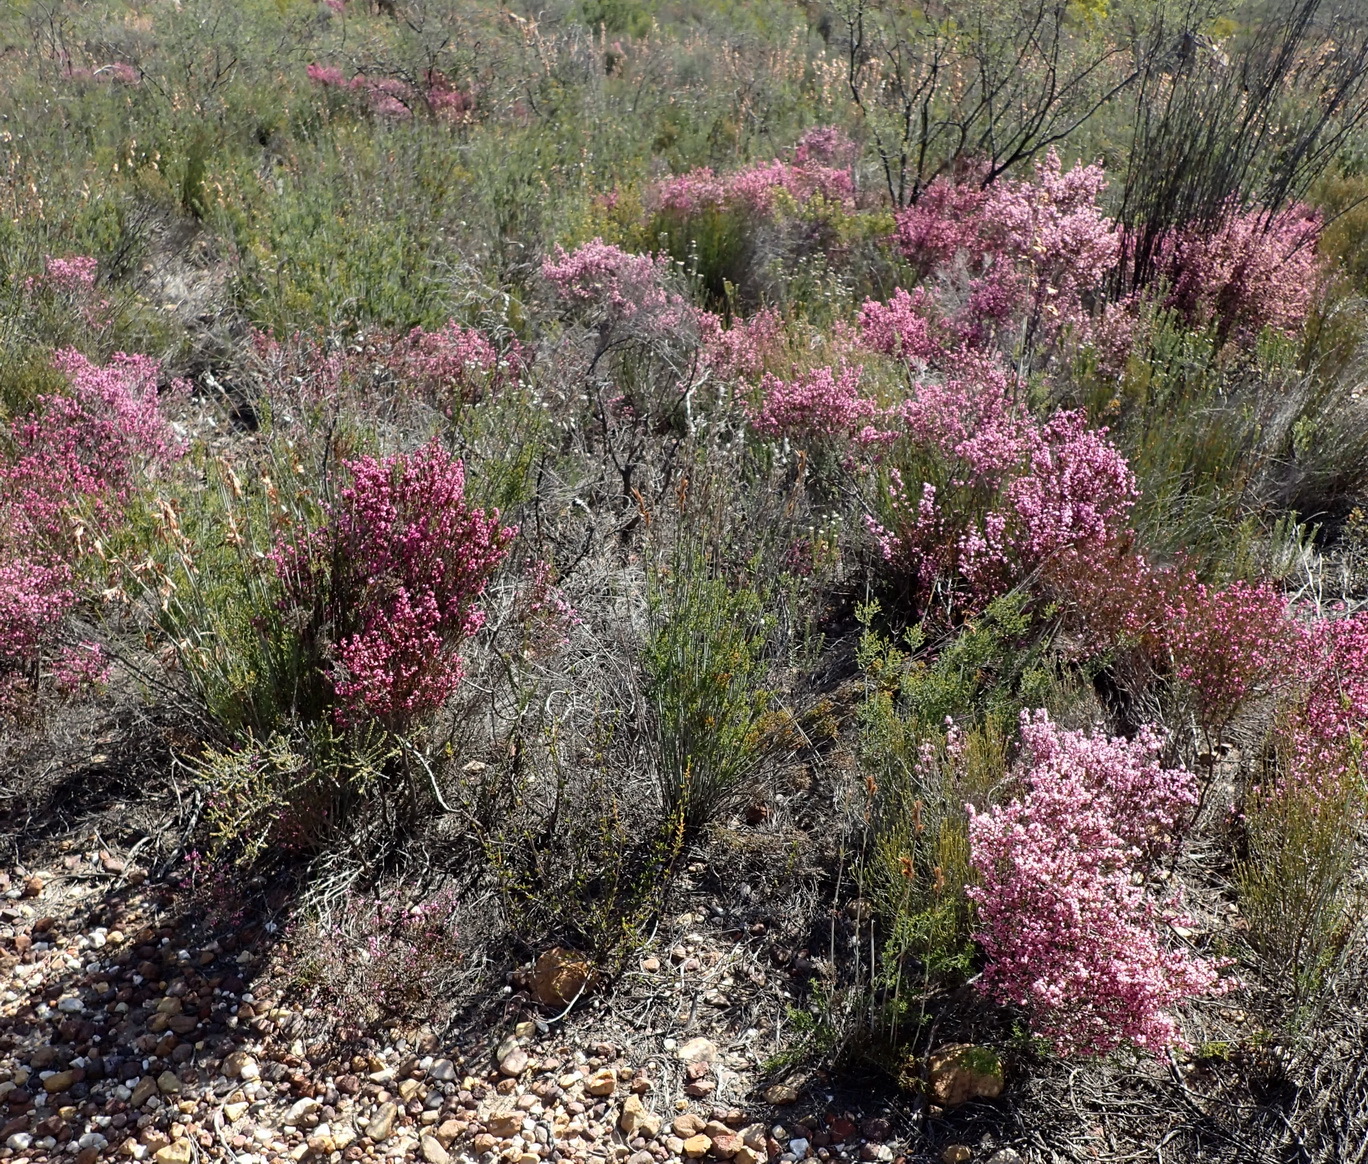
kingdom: Plantae
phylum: Tracheophyta
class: Magnoliopsida
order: Ericales
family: Ericaceae
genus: Erica
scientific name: Erica rosacea
